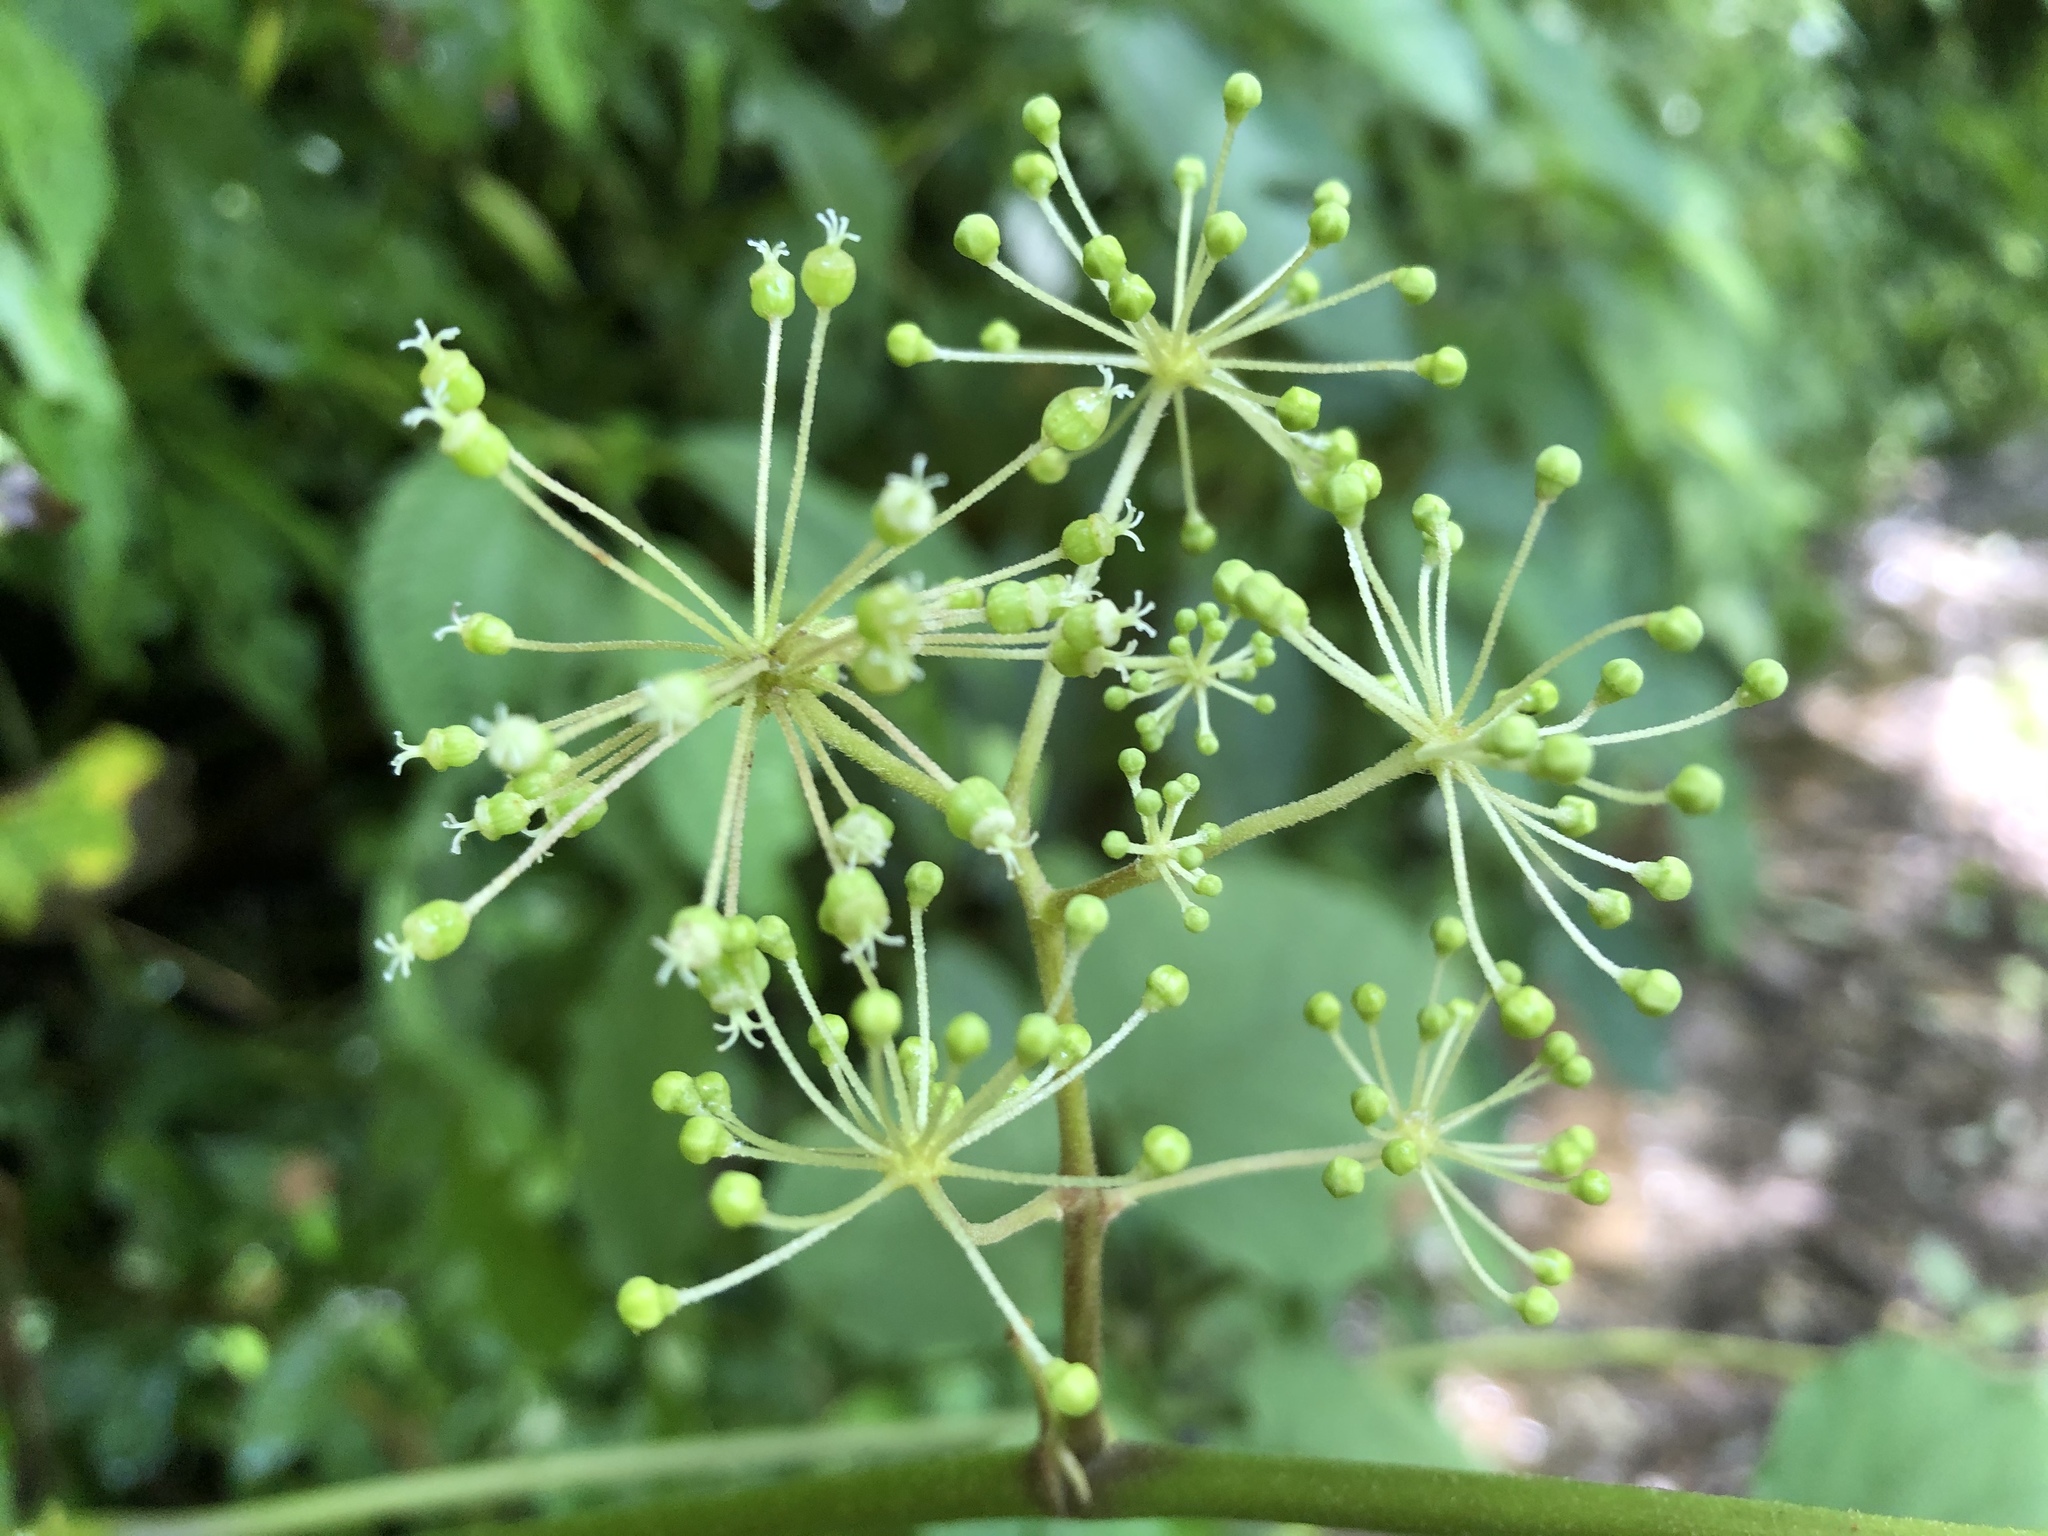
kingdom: Plantae
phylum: Tracheophyta
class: Magnoliopsida
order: Apiales
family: Araliaceae
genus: Aralia
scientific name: Aralia cordata
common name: Udo
